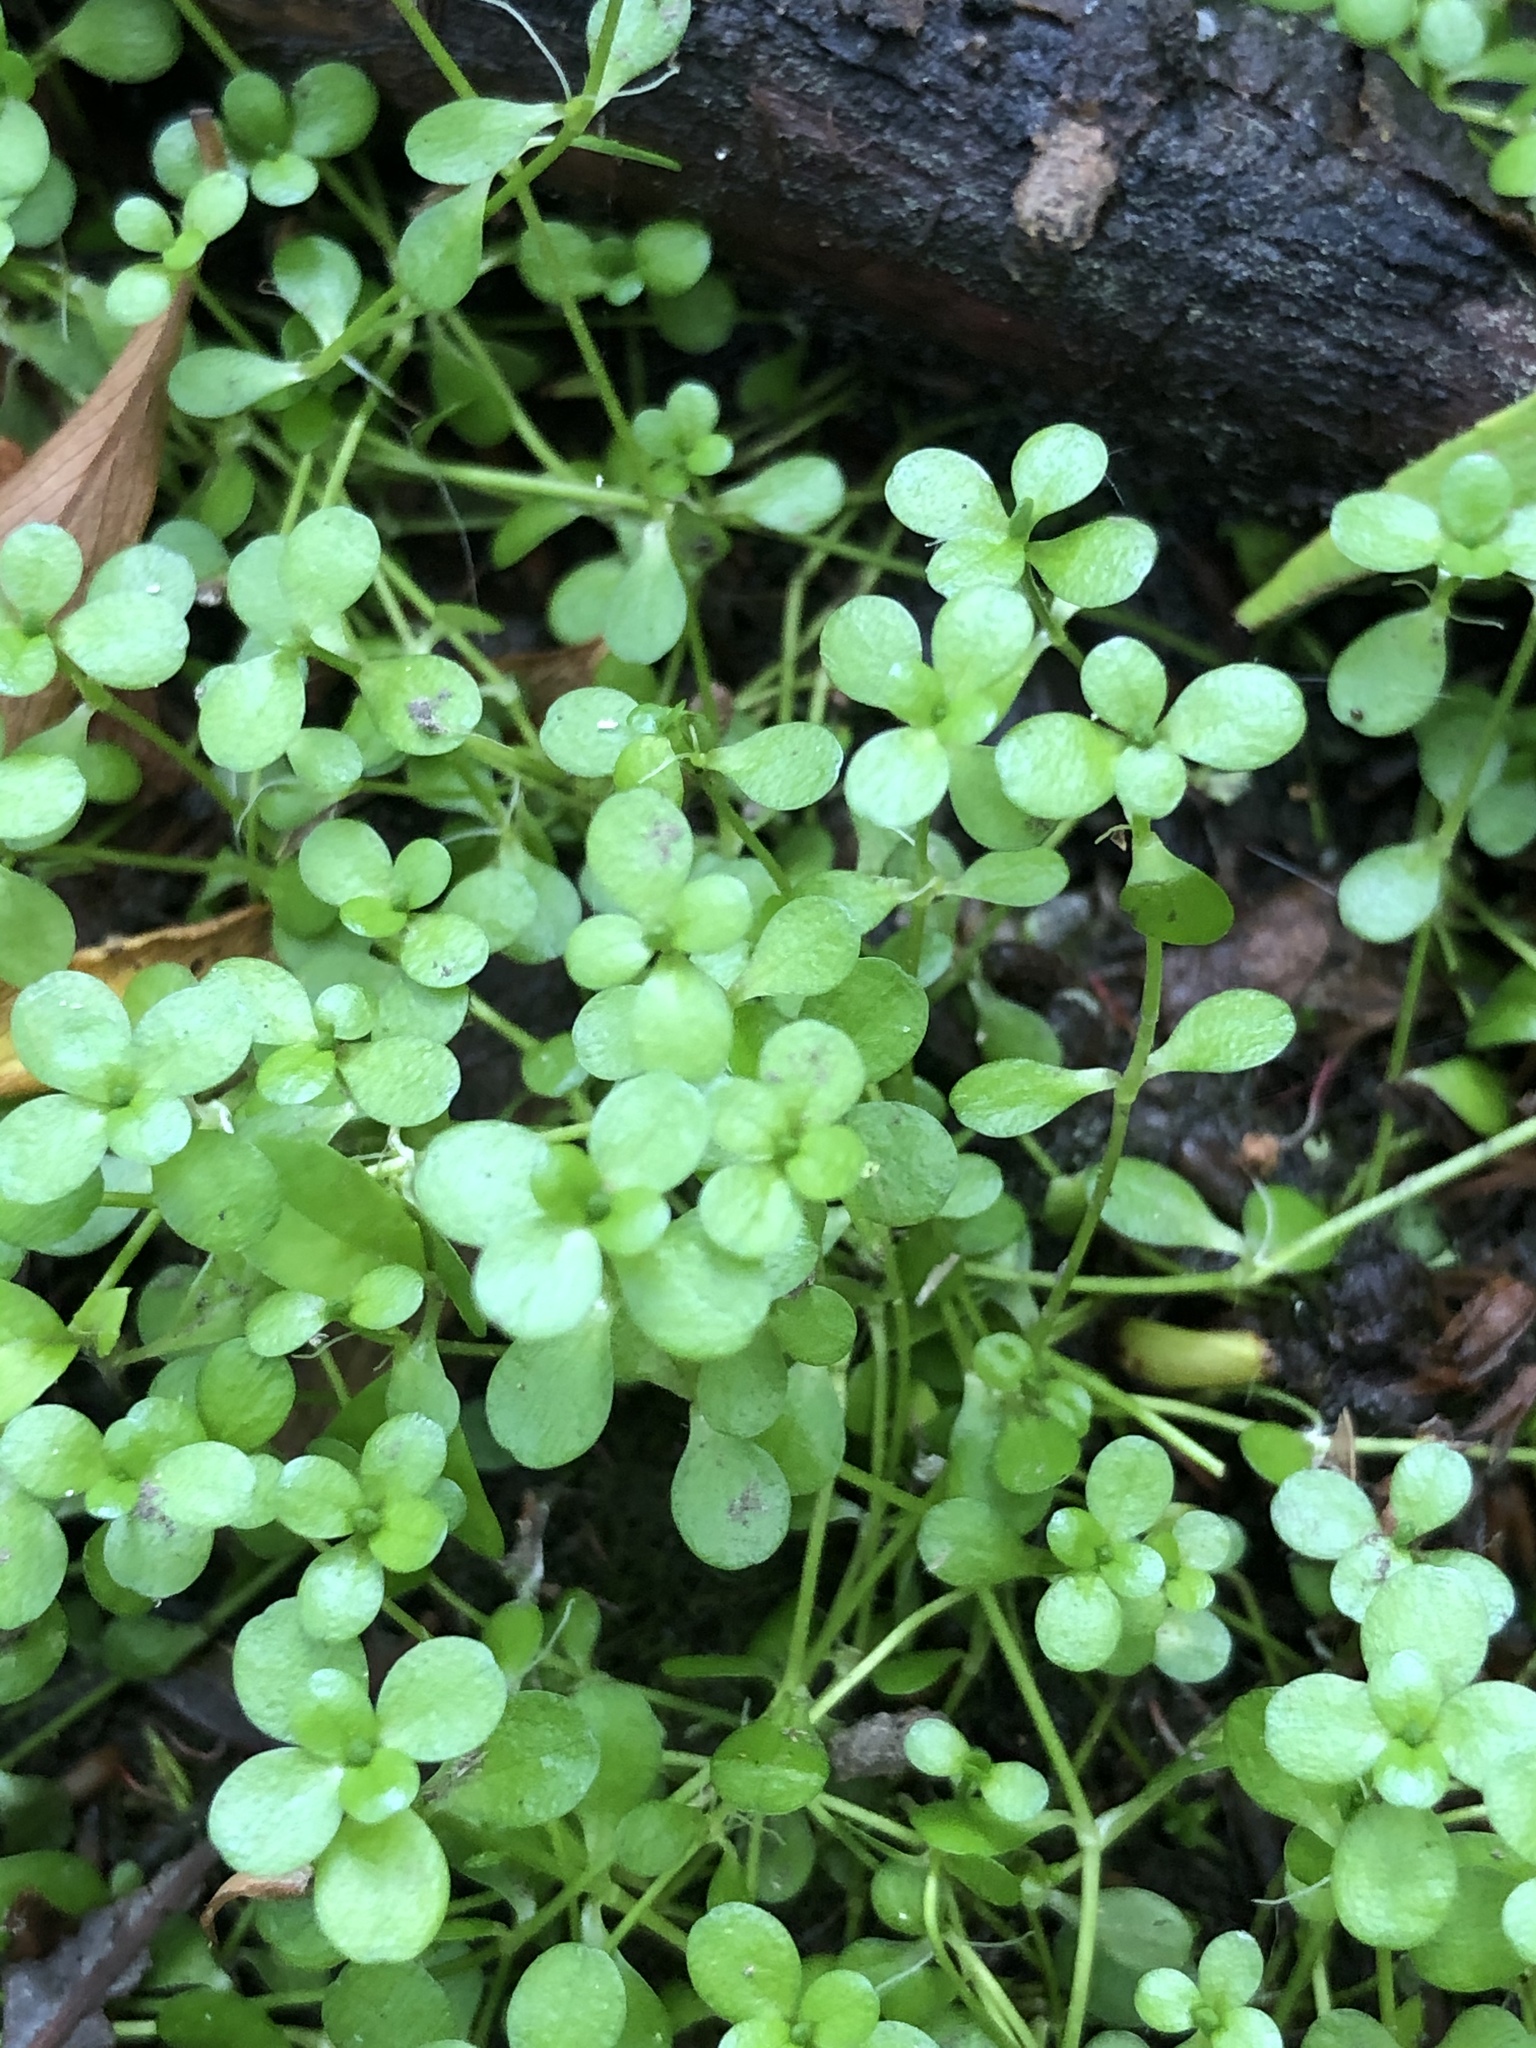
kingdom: Plantae
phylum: Tracheophyta
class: Magnoliopsida
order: Lamiales
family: Plantaginaceae
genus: Callitriche
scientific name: Callitriche stagnalis
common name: Common water-starwort
